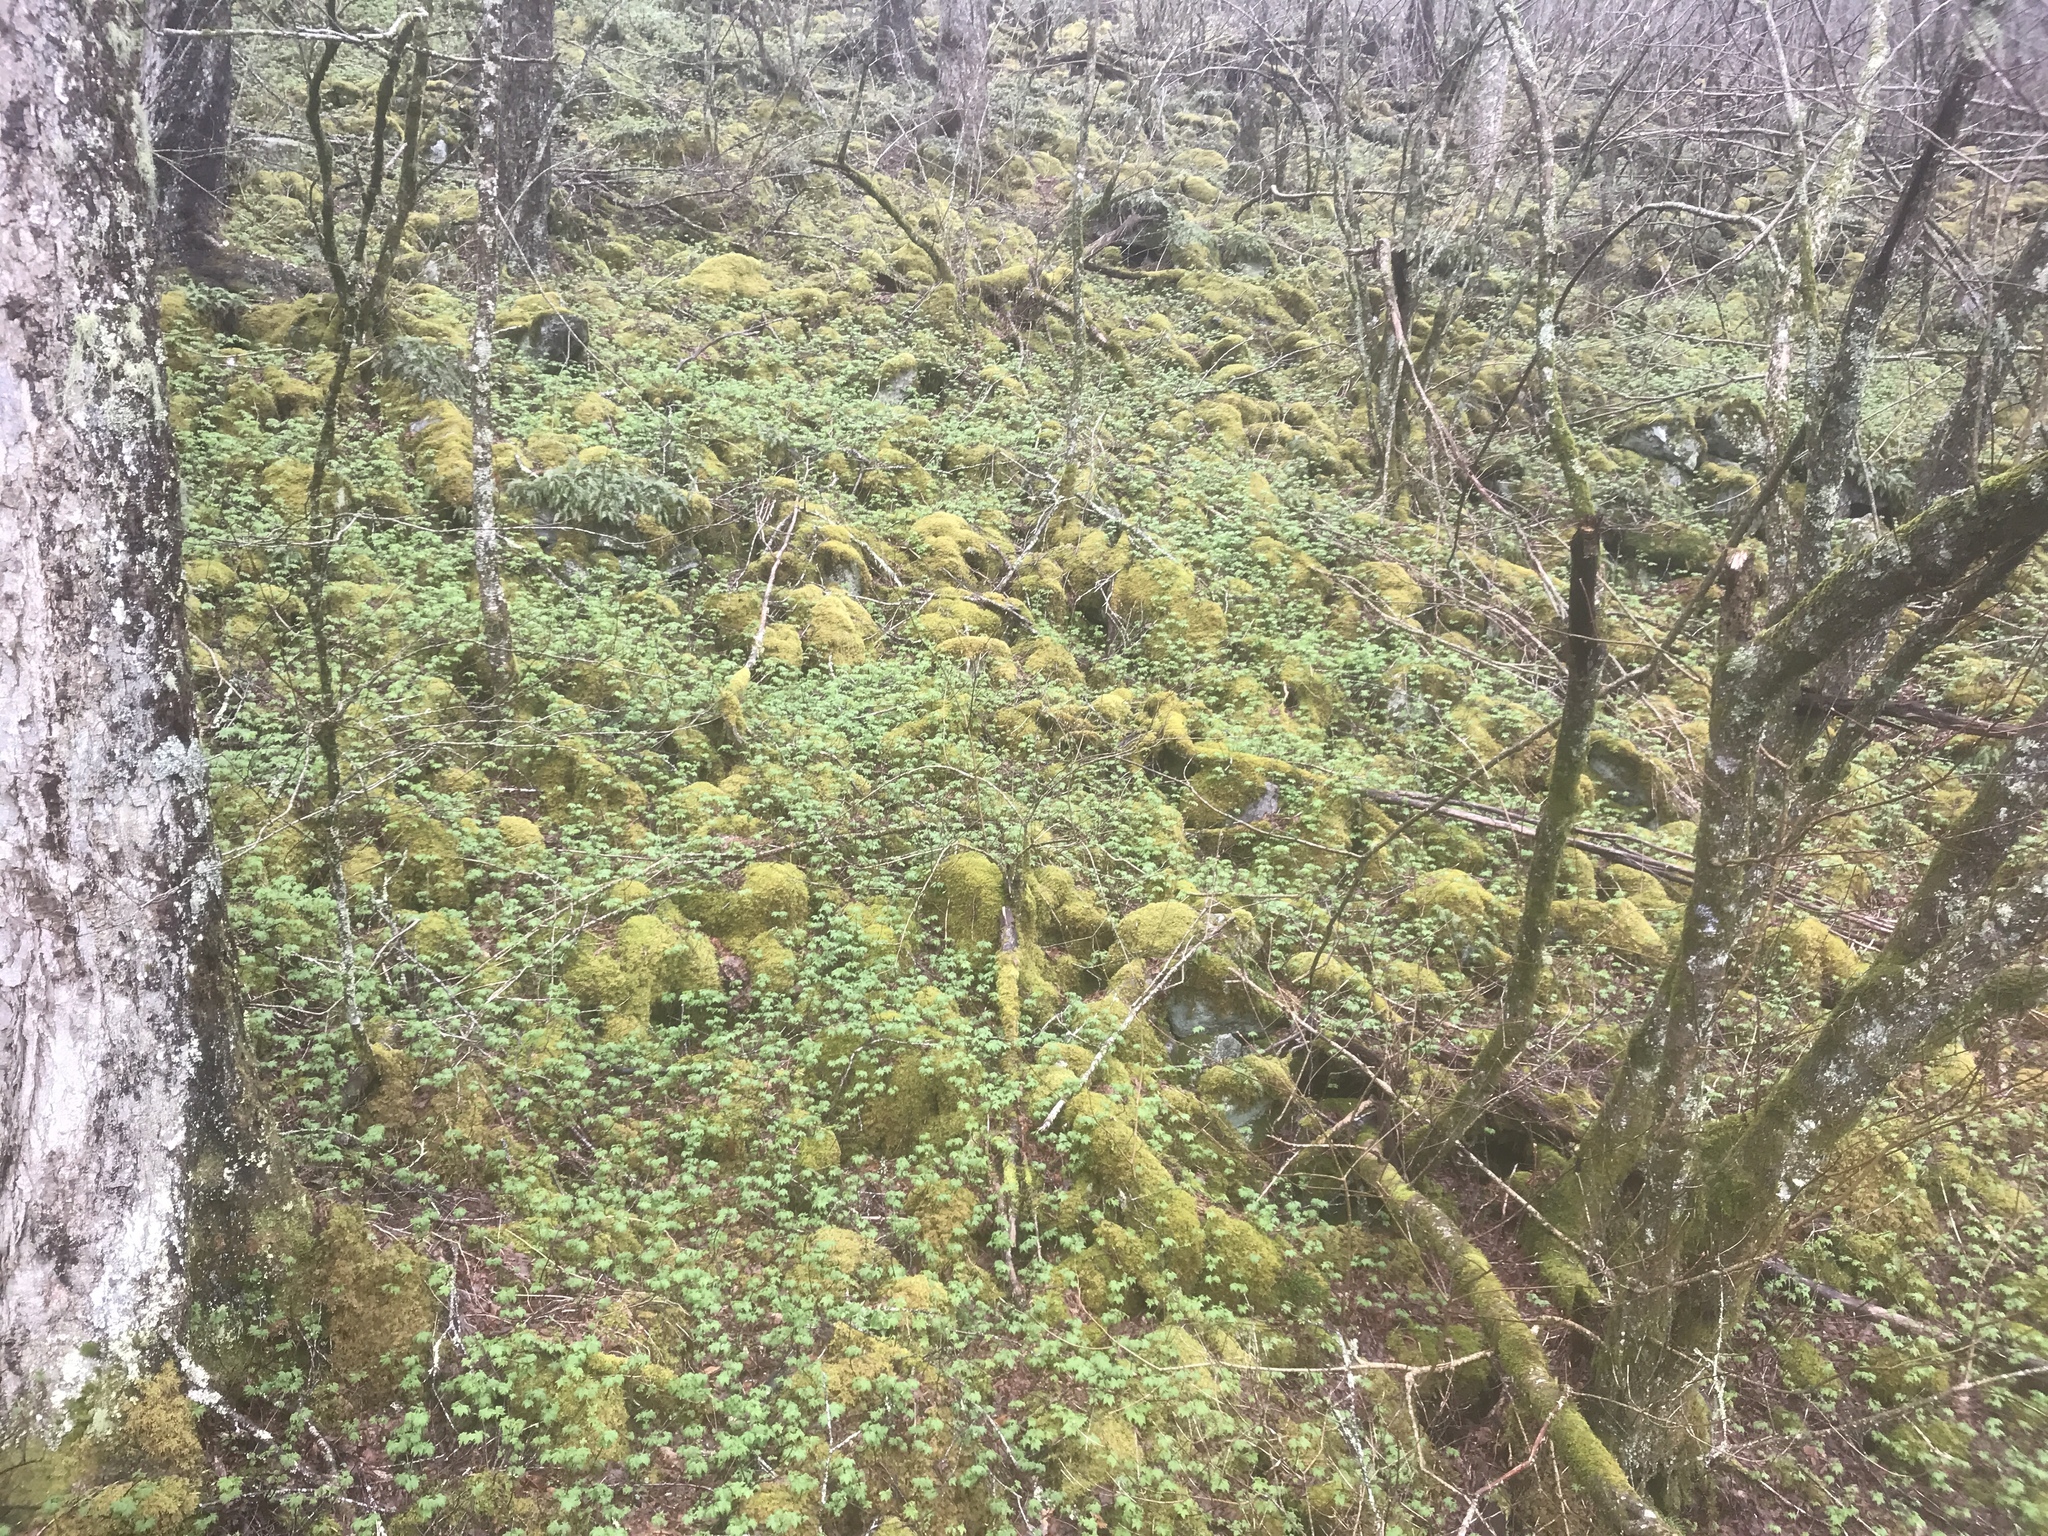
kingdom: Plantae
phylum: Tracheophyta
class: Magnoliopsida
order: Saxifragales
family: Grossulariaceae
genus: Ribes
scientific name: Ribes glandulosum
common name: Skunk currant
